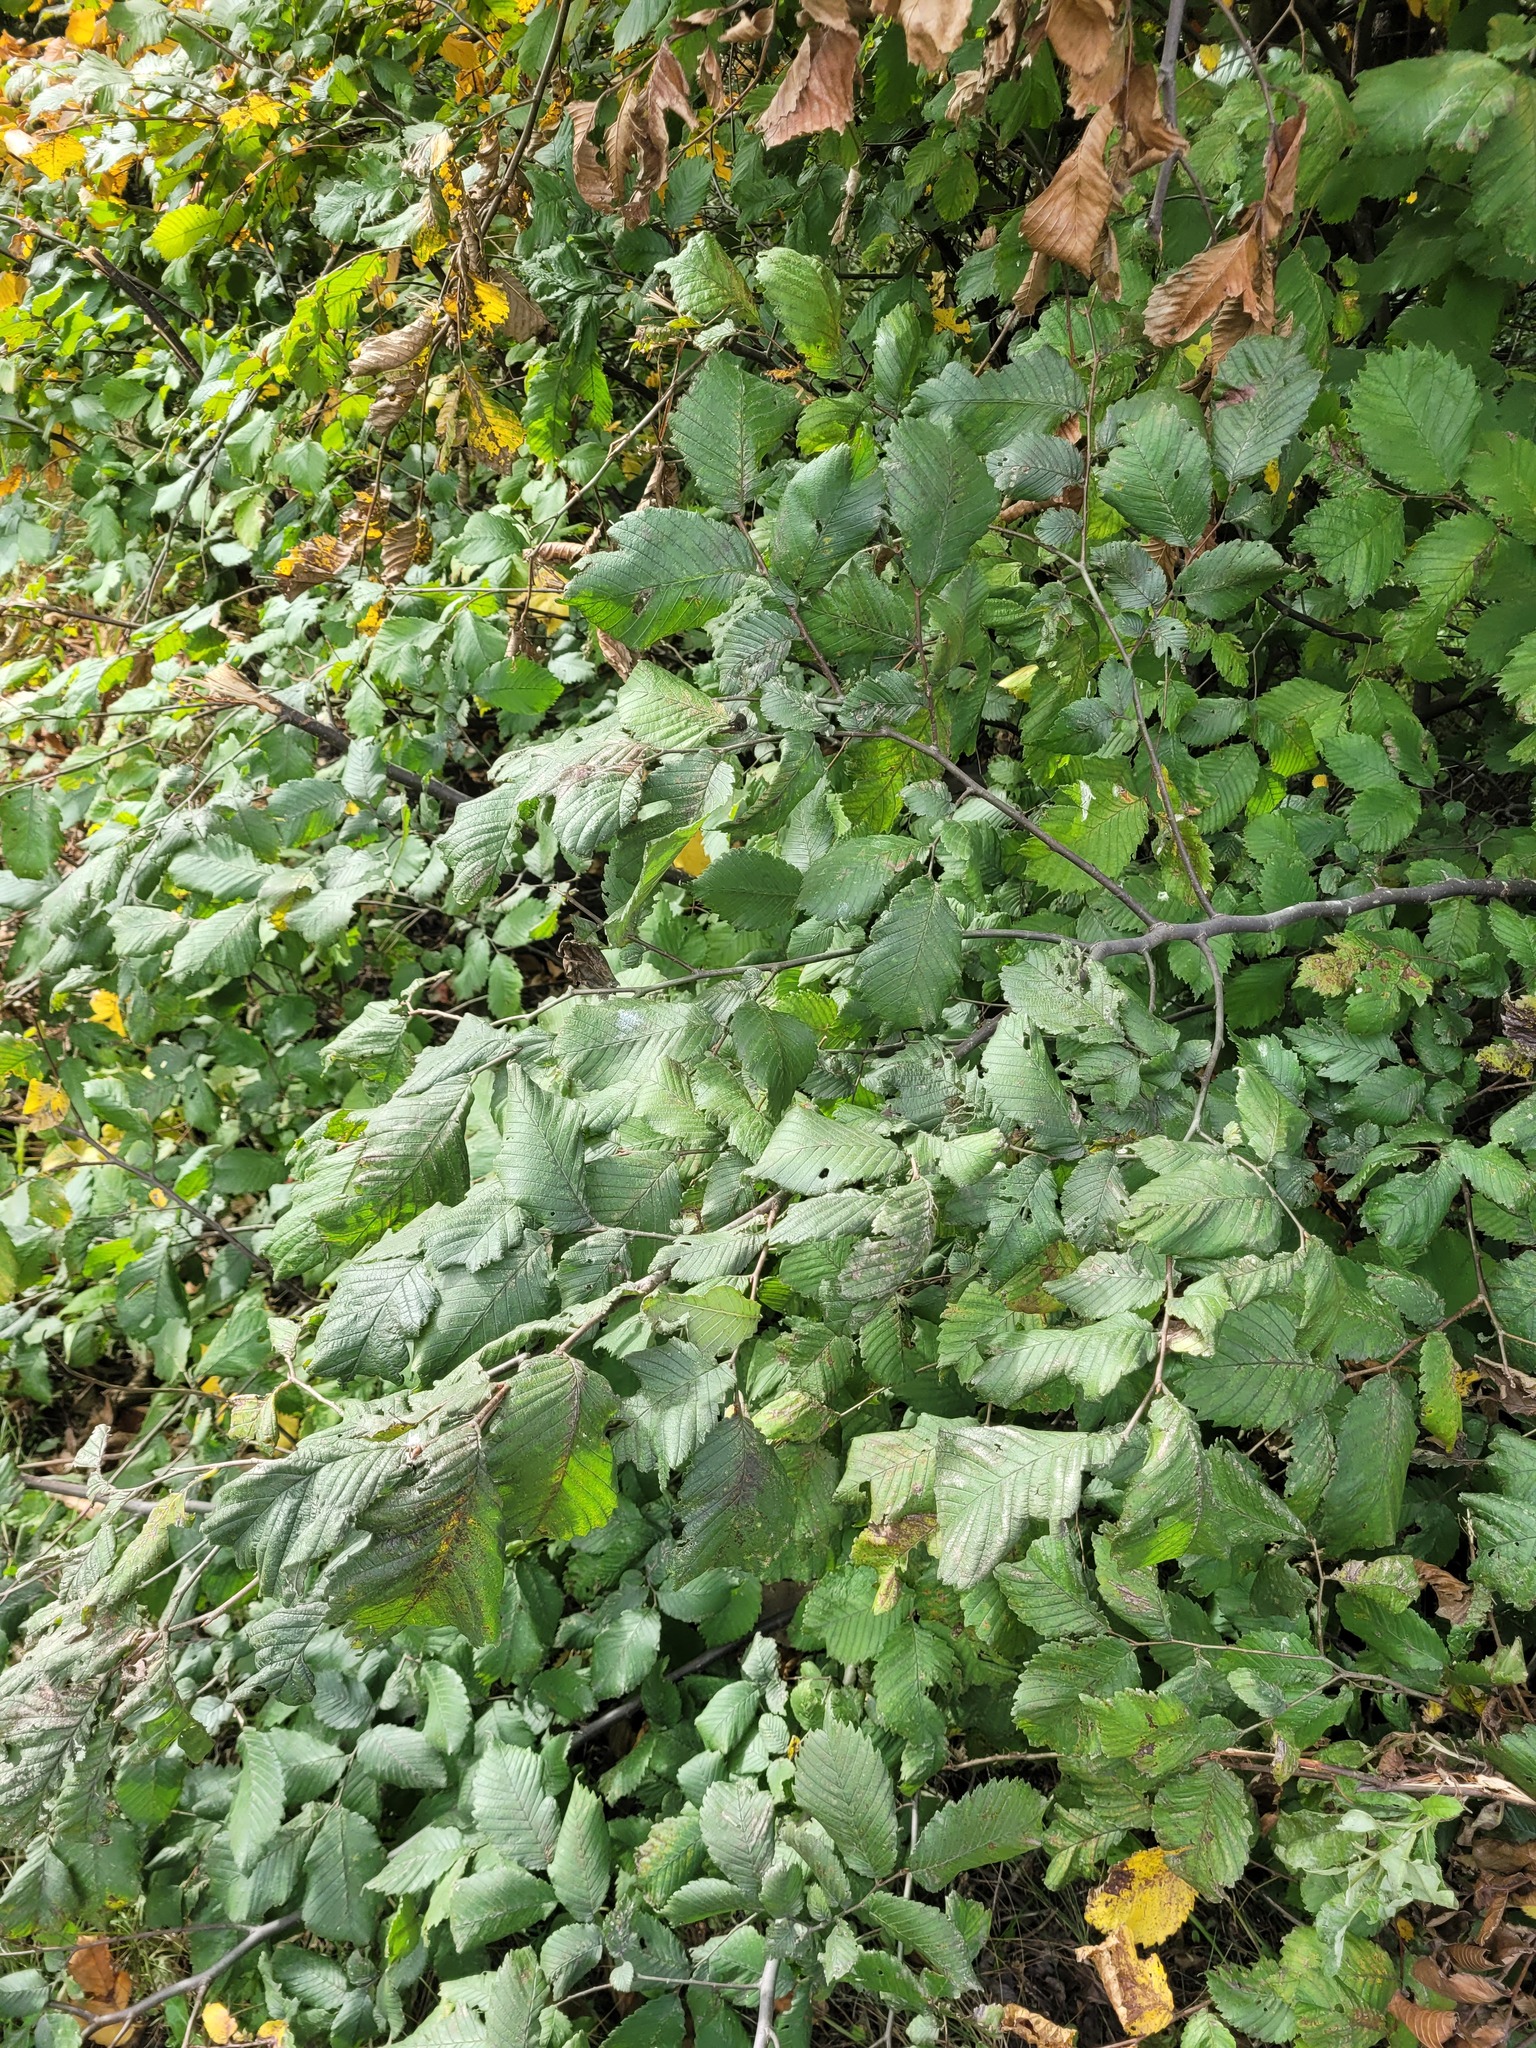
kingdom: Plantae
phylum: Tracheophyta
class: Magnoliopsida
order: Rosales
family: Ulmaceae
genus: Ulmus
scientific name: Ulmus laevis
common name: European white-elm
